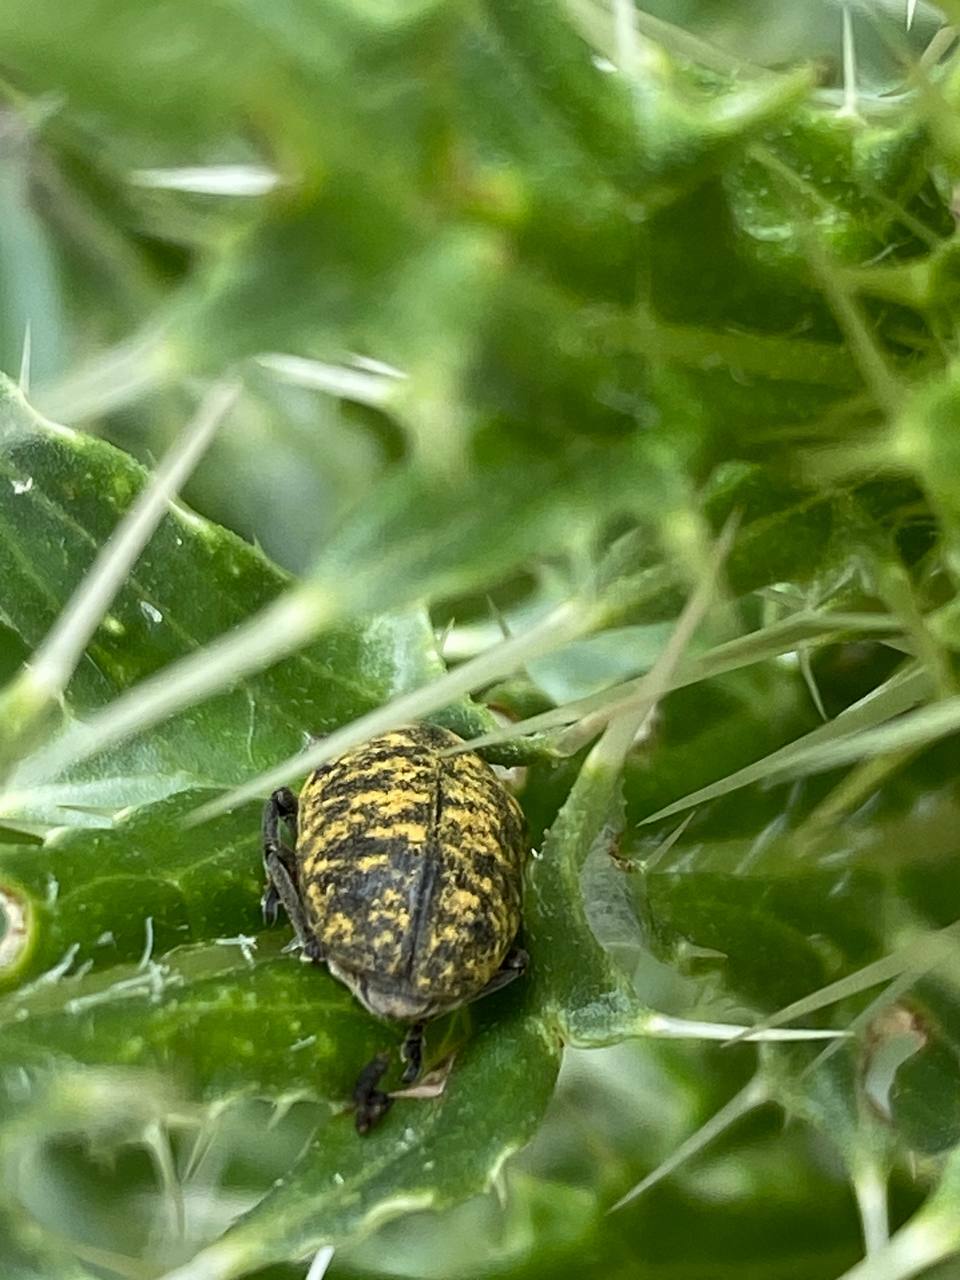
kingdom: Animalia
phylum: Arthropoda
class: Insecta
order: Coleoptera
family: Curculionidae
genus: Larinus
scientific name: Larinus turbinatus
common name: Weevil
